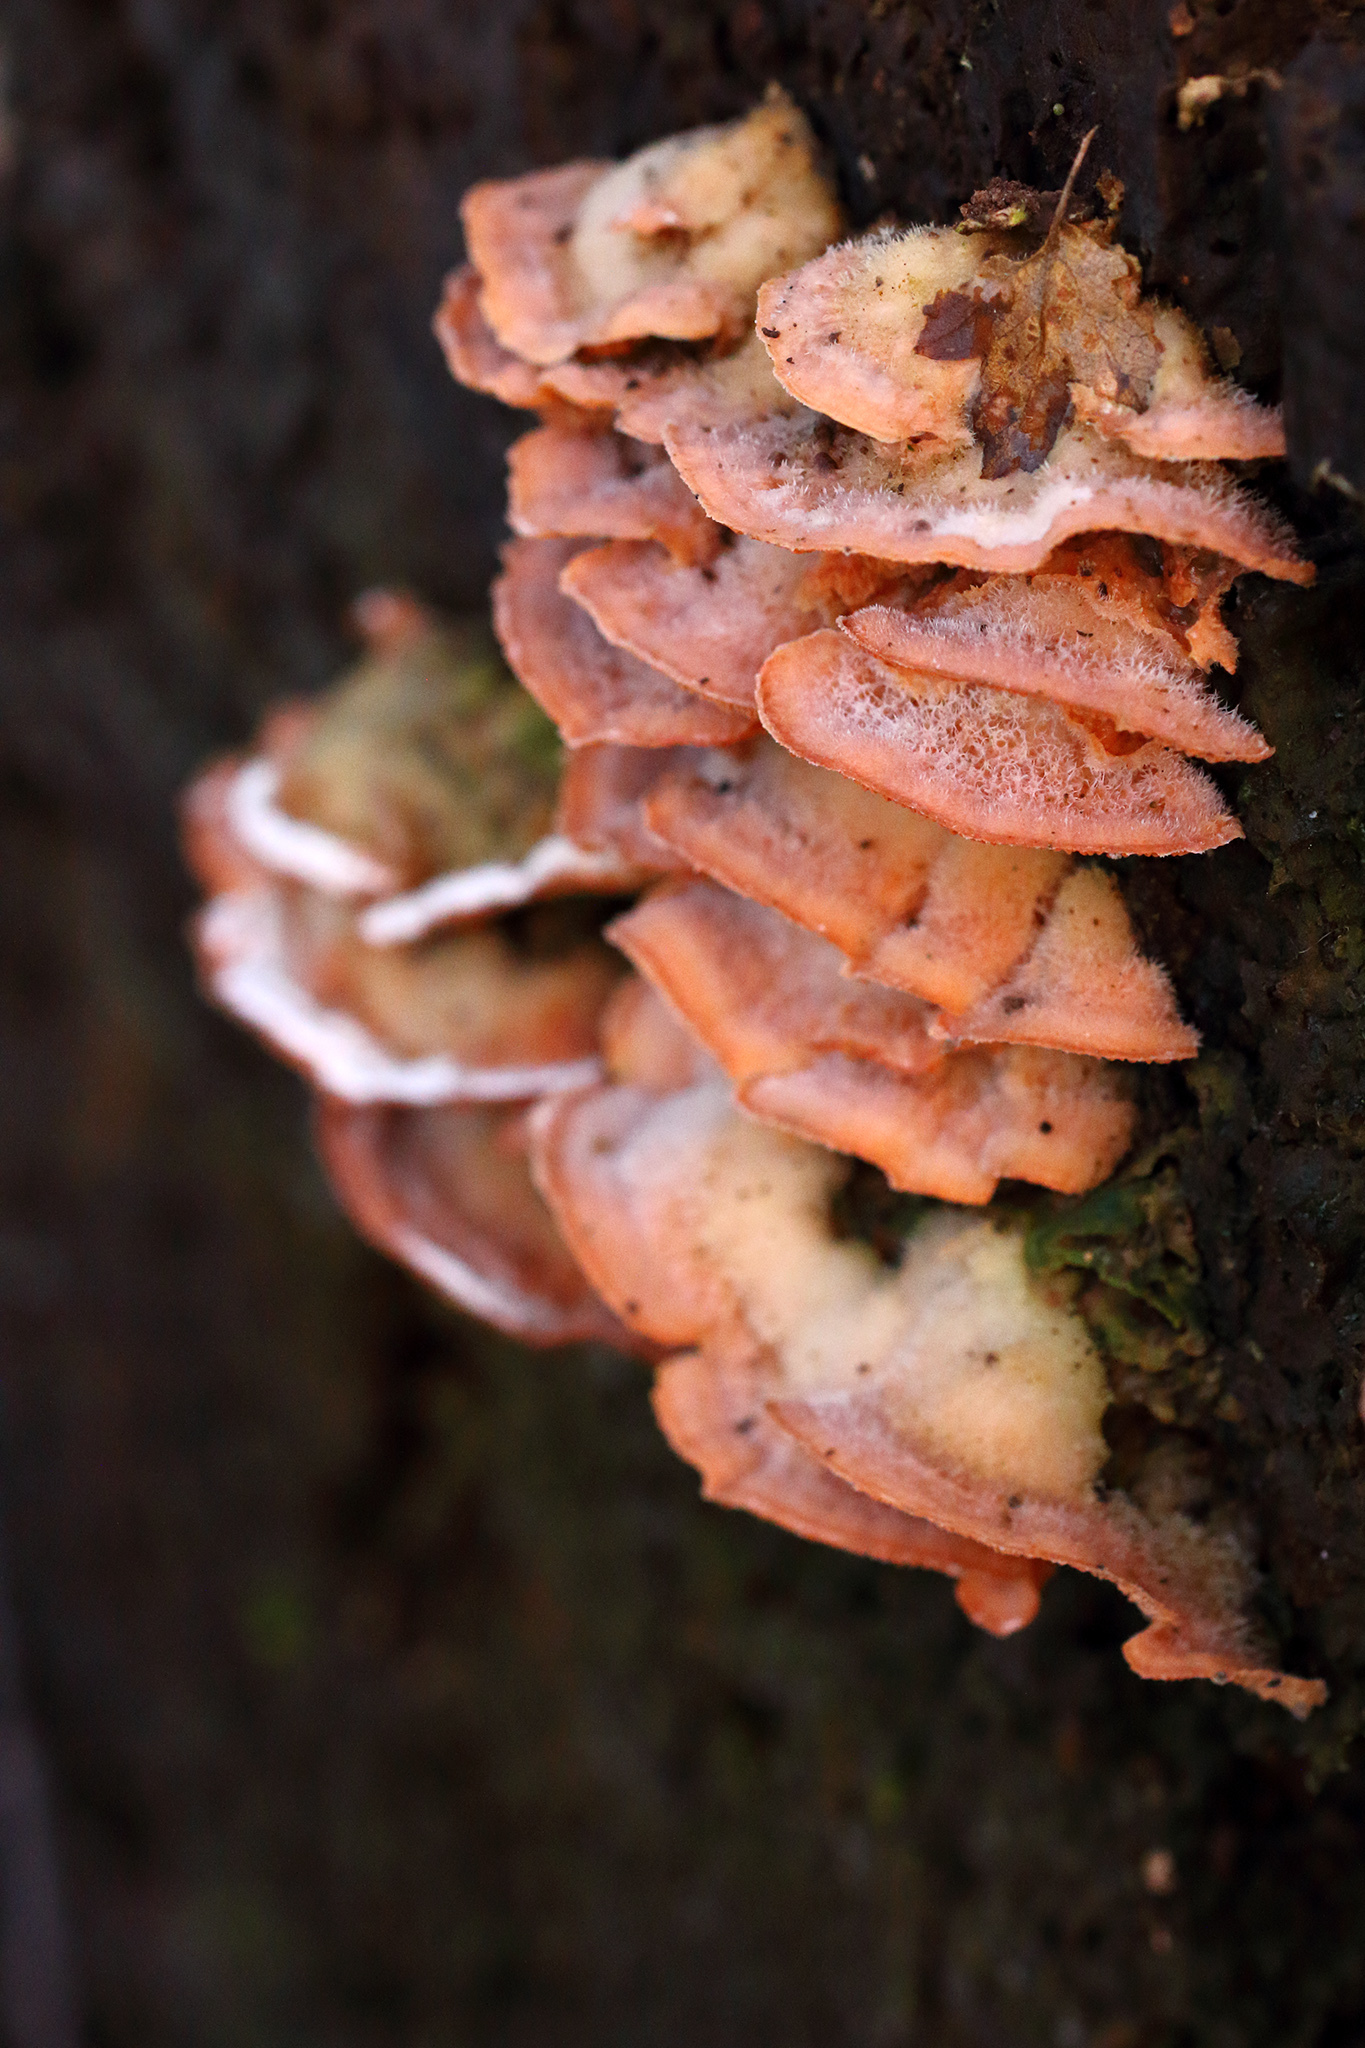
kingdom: Fungi
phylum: Basidiomycota
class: Agaricomycetes
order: Polyporales
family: Meruliaceae
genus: Phlebia
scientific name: Phlebia tremellosa
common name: Jelly rot
